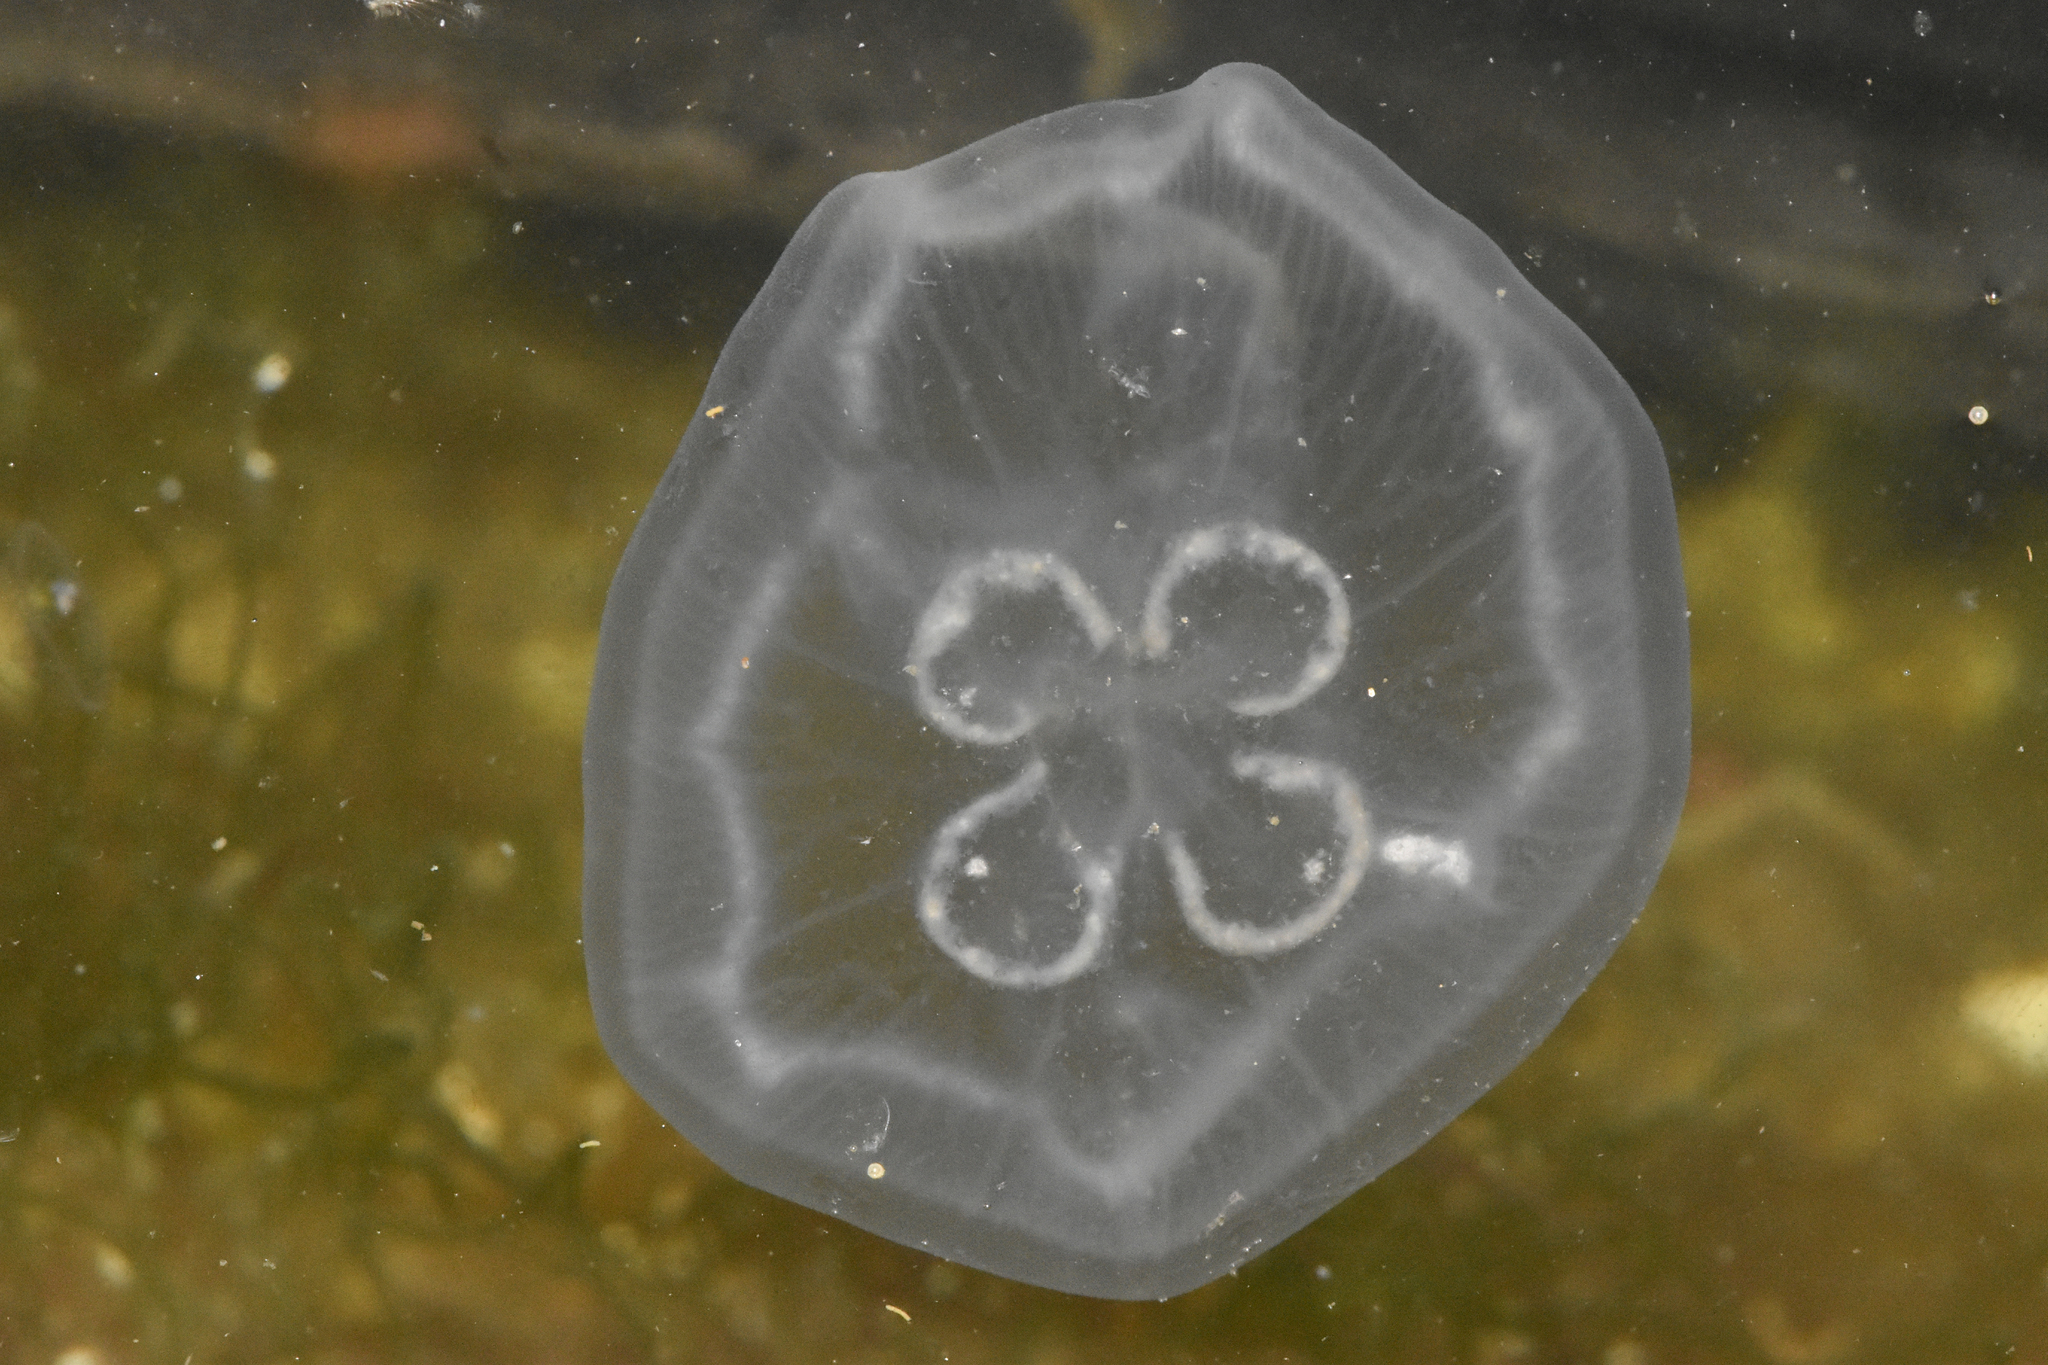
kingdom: Animalia
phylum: Cnidaria
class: Scyphozoa
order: Semaeostomeae
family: Ulmaridae
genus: Aurelia
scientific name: Aurelia labiata
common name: Pacific moon jelly
